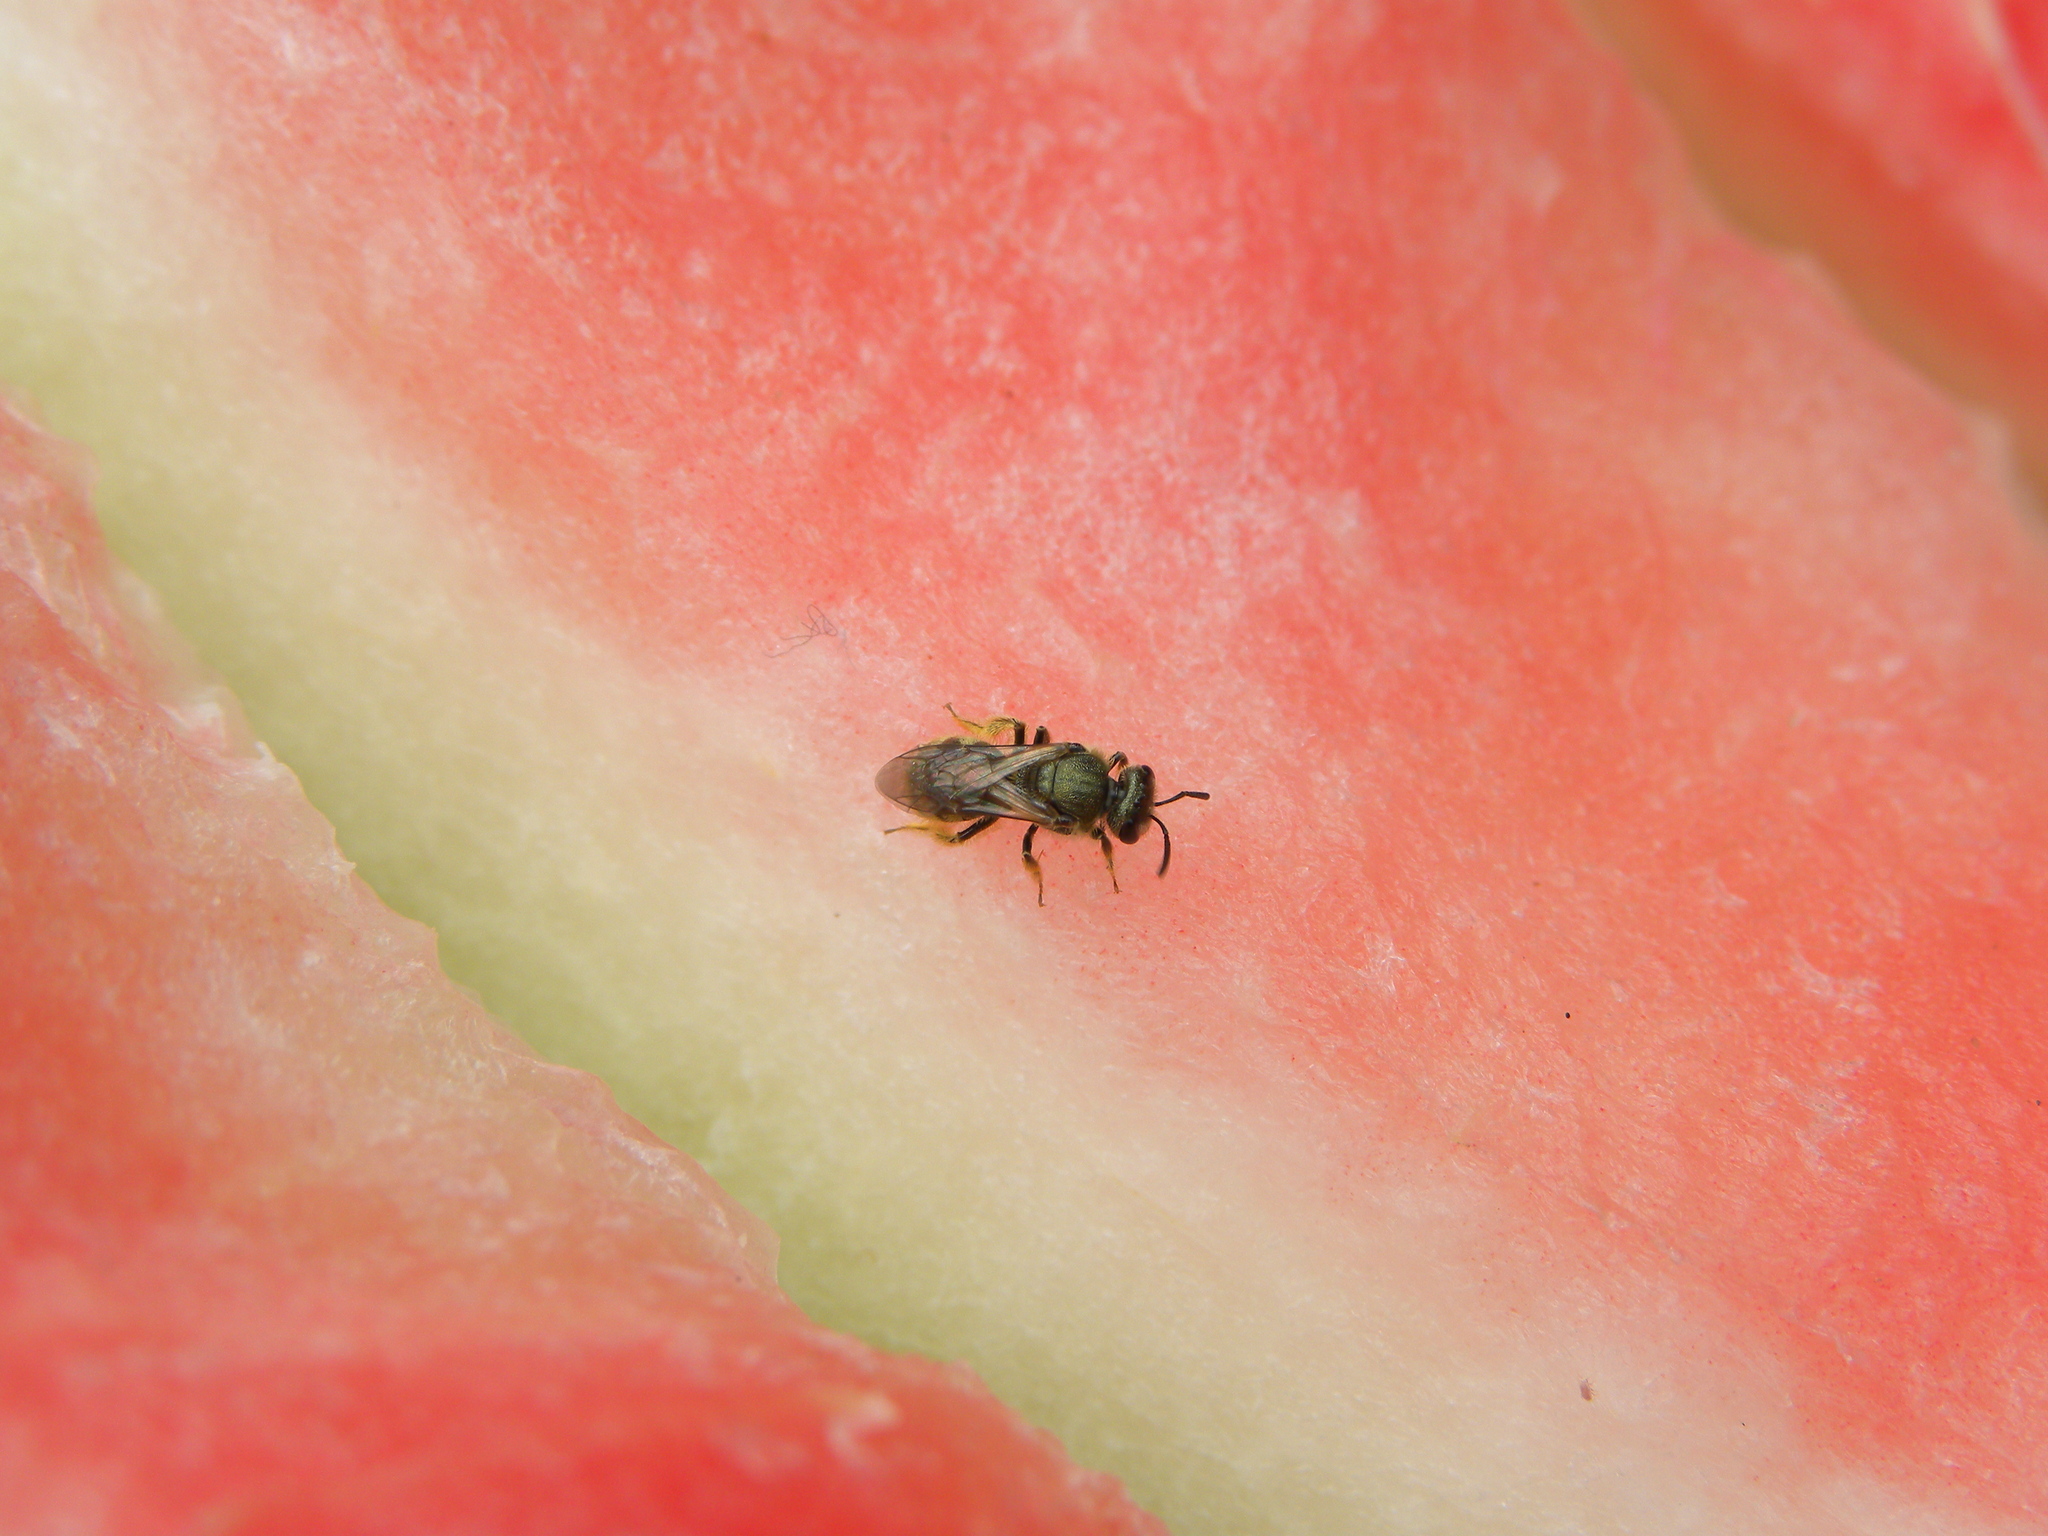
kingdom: Animalia
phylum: Arthropoda
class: Insecta
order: Hymenoptera
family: Halictidae
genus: Lasioglossum
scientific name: Lasioglossum bruneri
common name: Bruner's sweat bee
